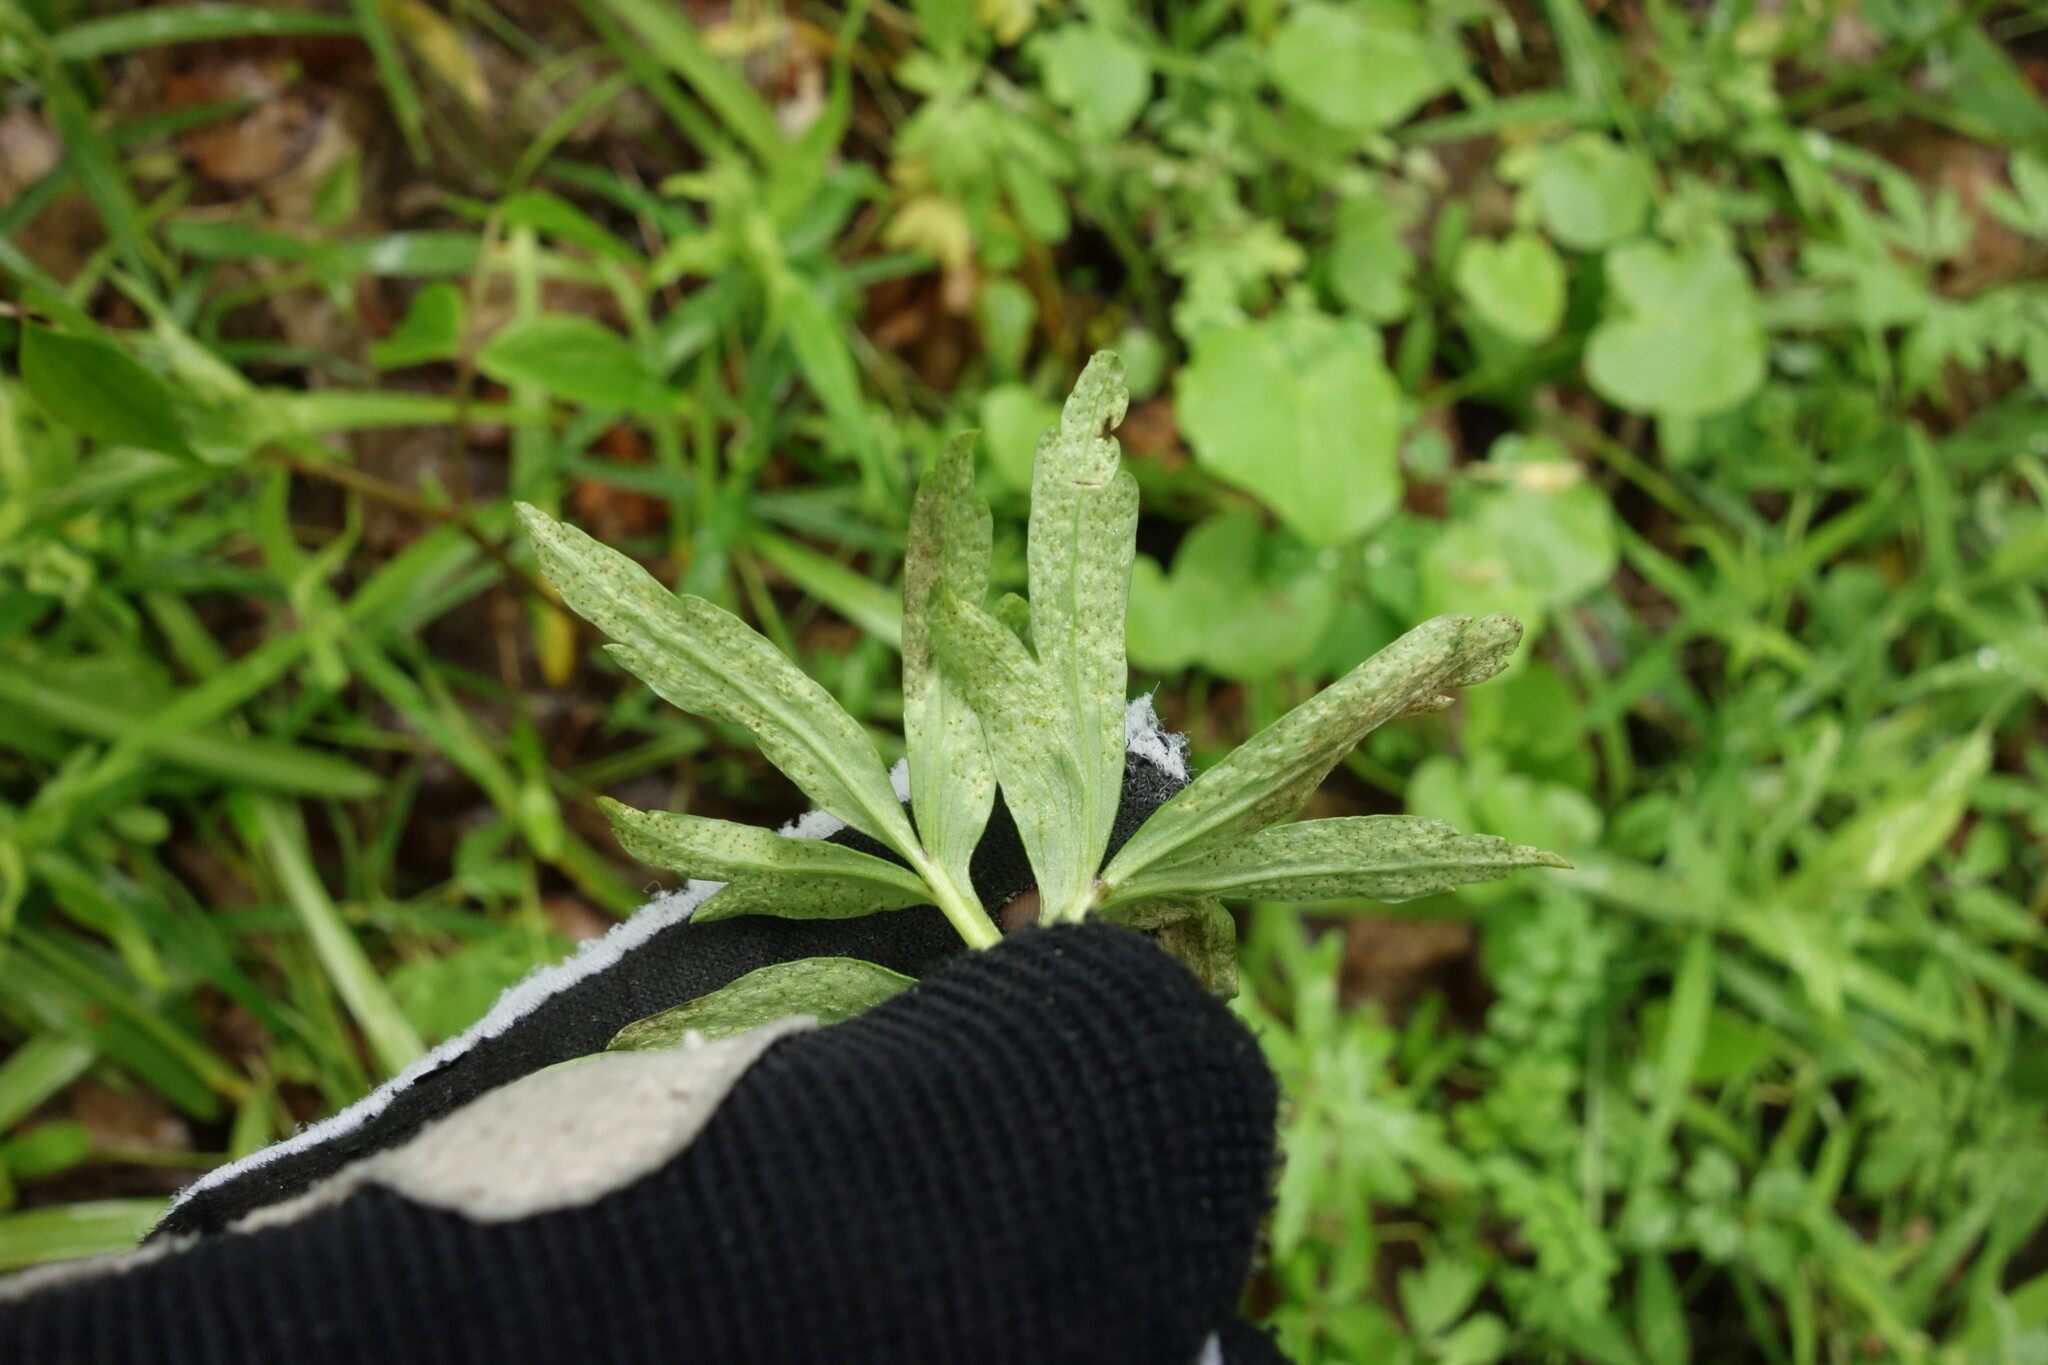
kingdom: Fungi
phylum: Basidiomycota
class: Pucciniomycetes
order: Pucciniales
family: Tranzscheliaceae
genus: Tranzschelia
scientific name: Tranzschelia pruni-spinosae
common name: Blackthorn rust
